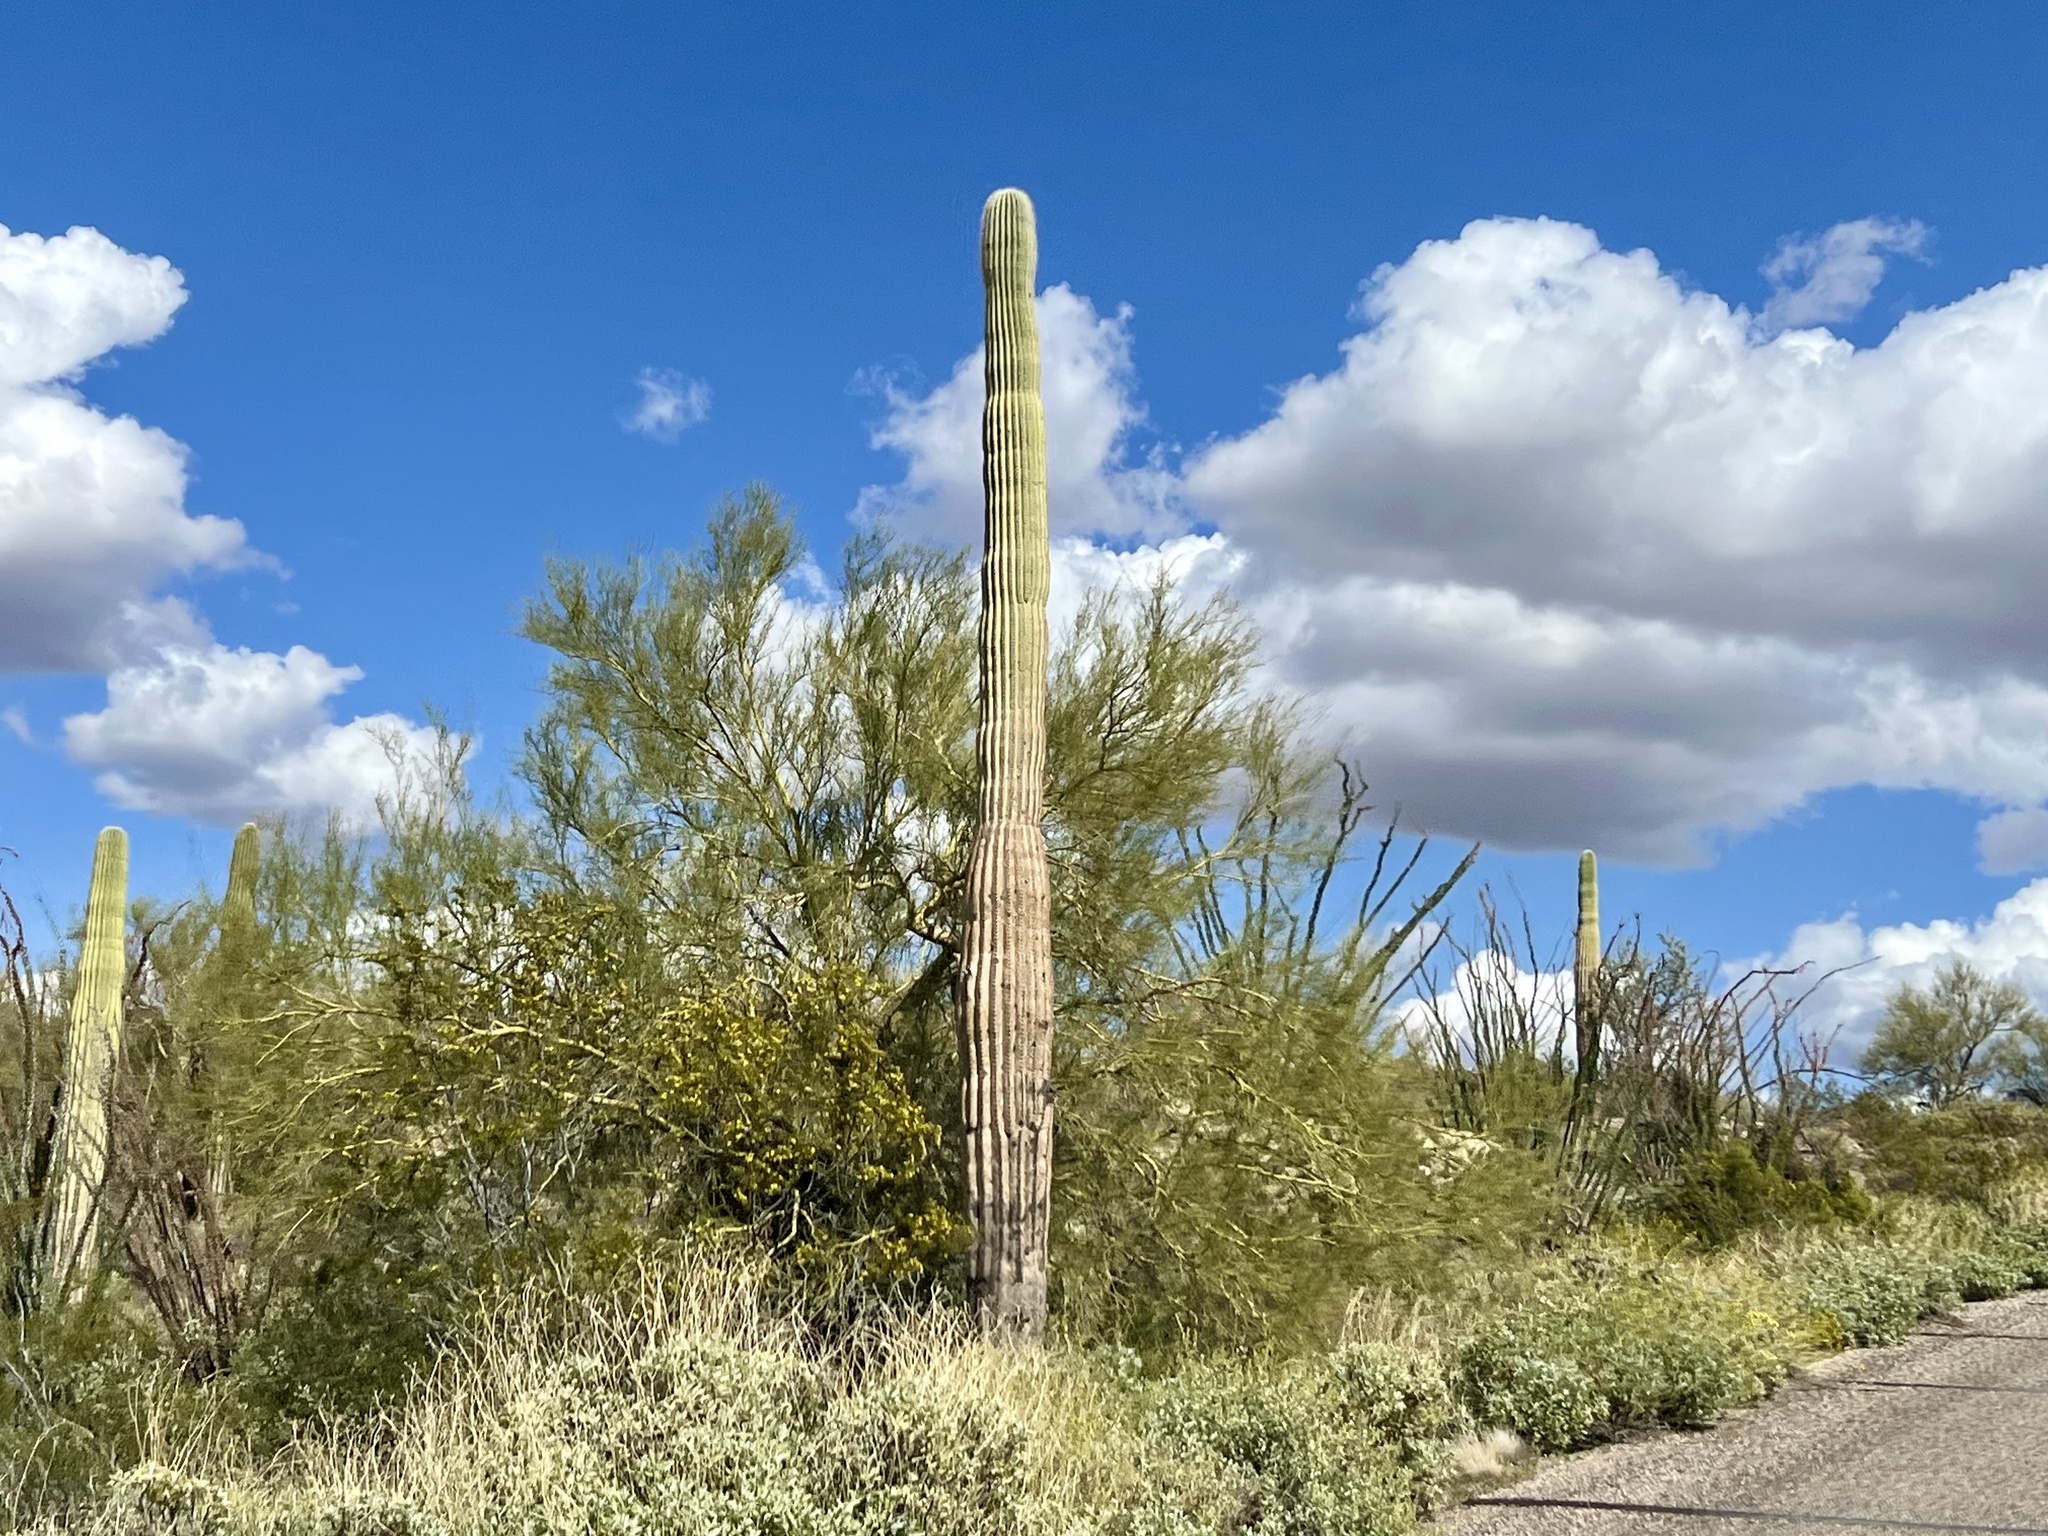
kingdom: Plantae
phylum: Tracheophyta
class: Magnoliopsida
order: Caryophyllales
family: Cactaceae
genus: Carnegiea
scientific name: Carnegiea gigantea
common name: Saguaro
